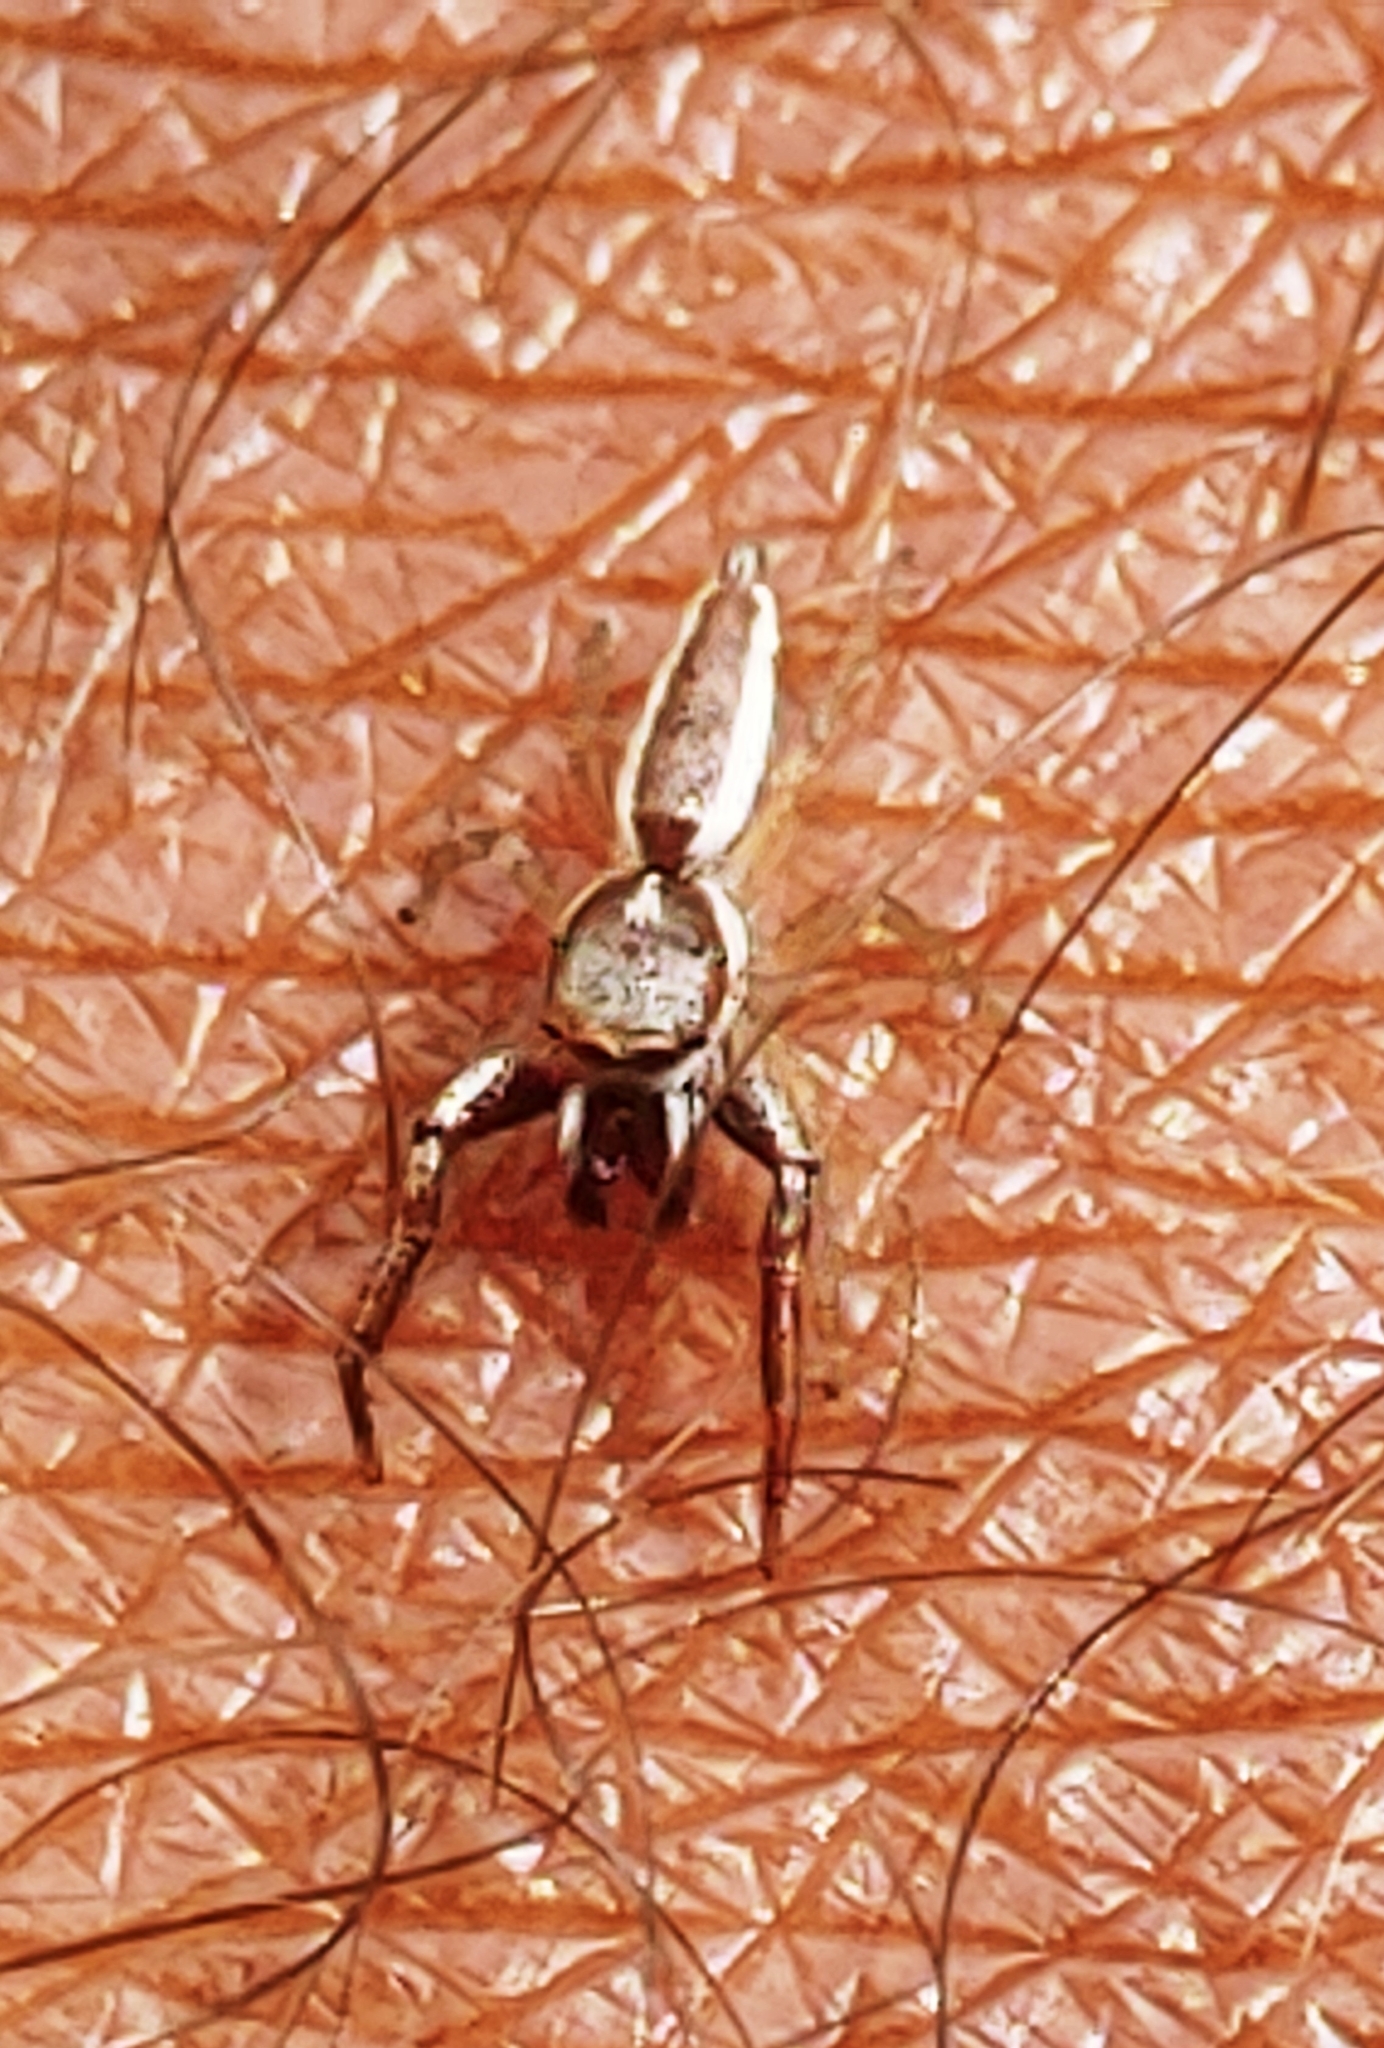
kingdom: Animalia
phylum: Arthropoda
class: Arachnida
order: Araneae
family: Salticidae
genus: Hentzia
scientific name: Hentzia palmarum
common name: Common hentz jumping spider
